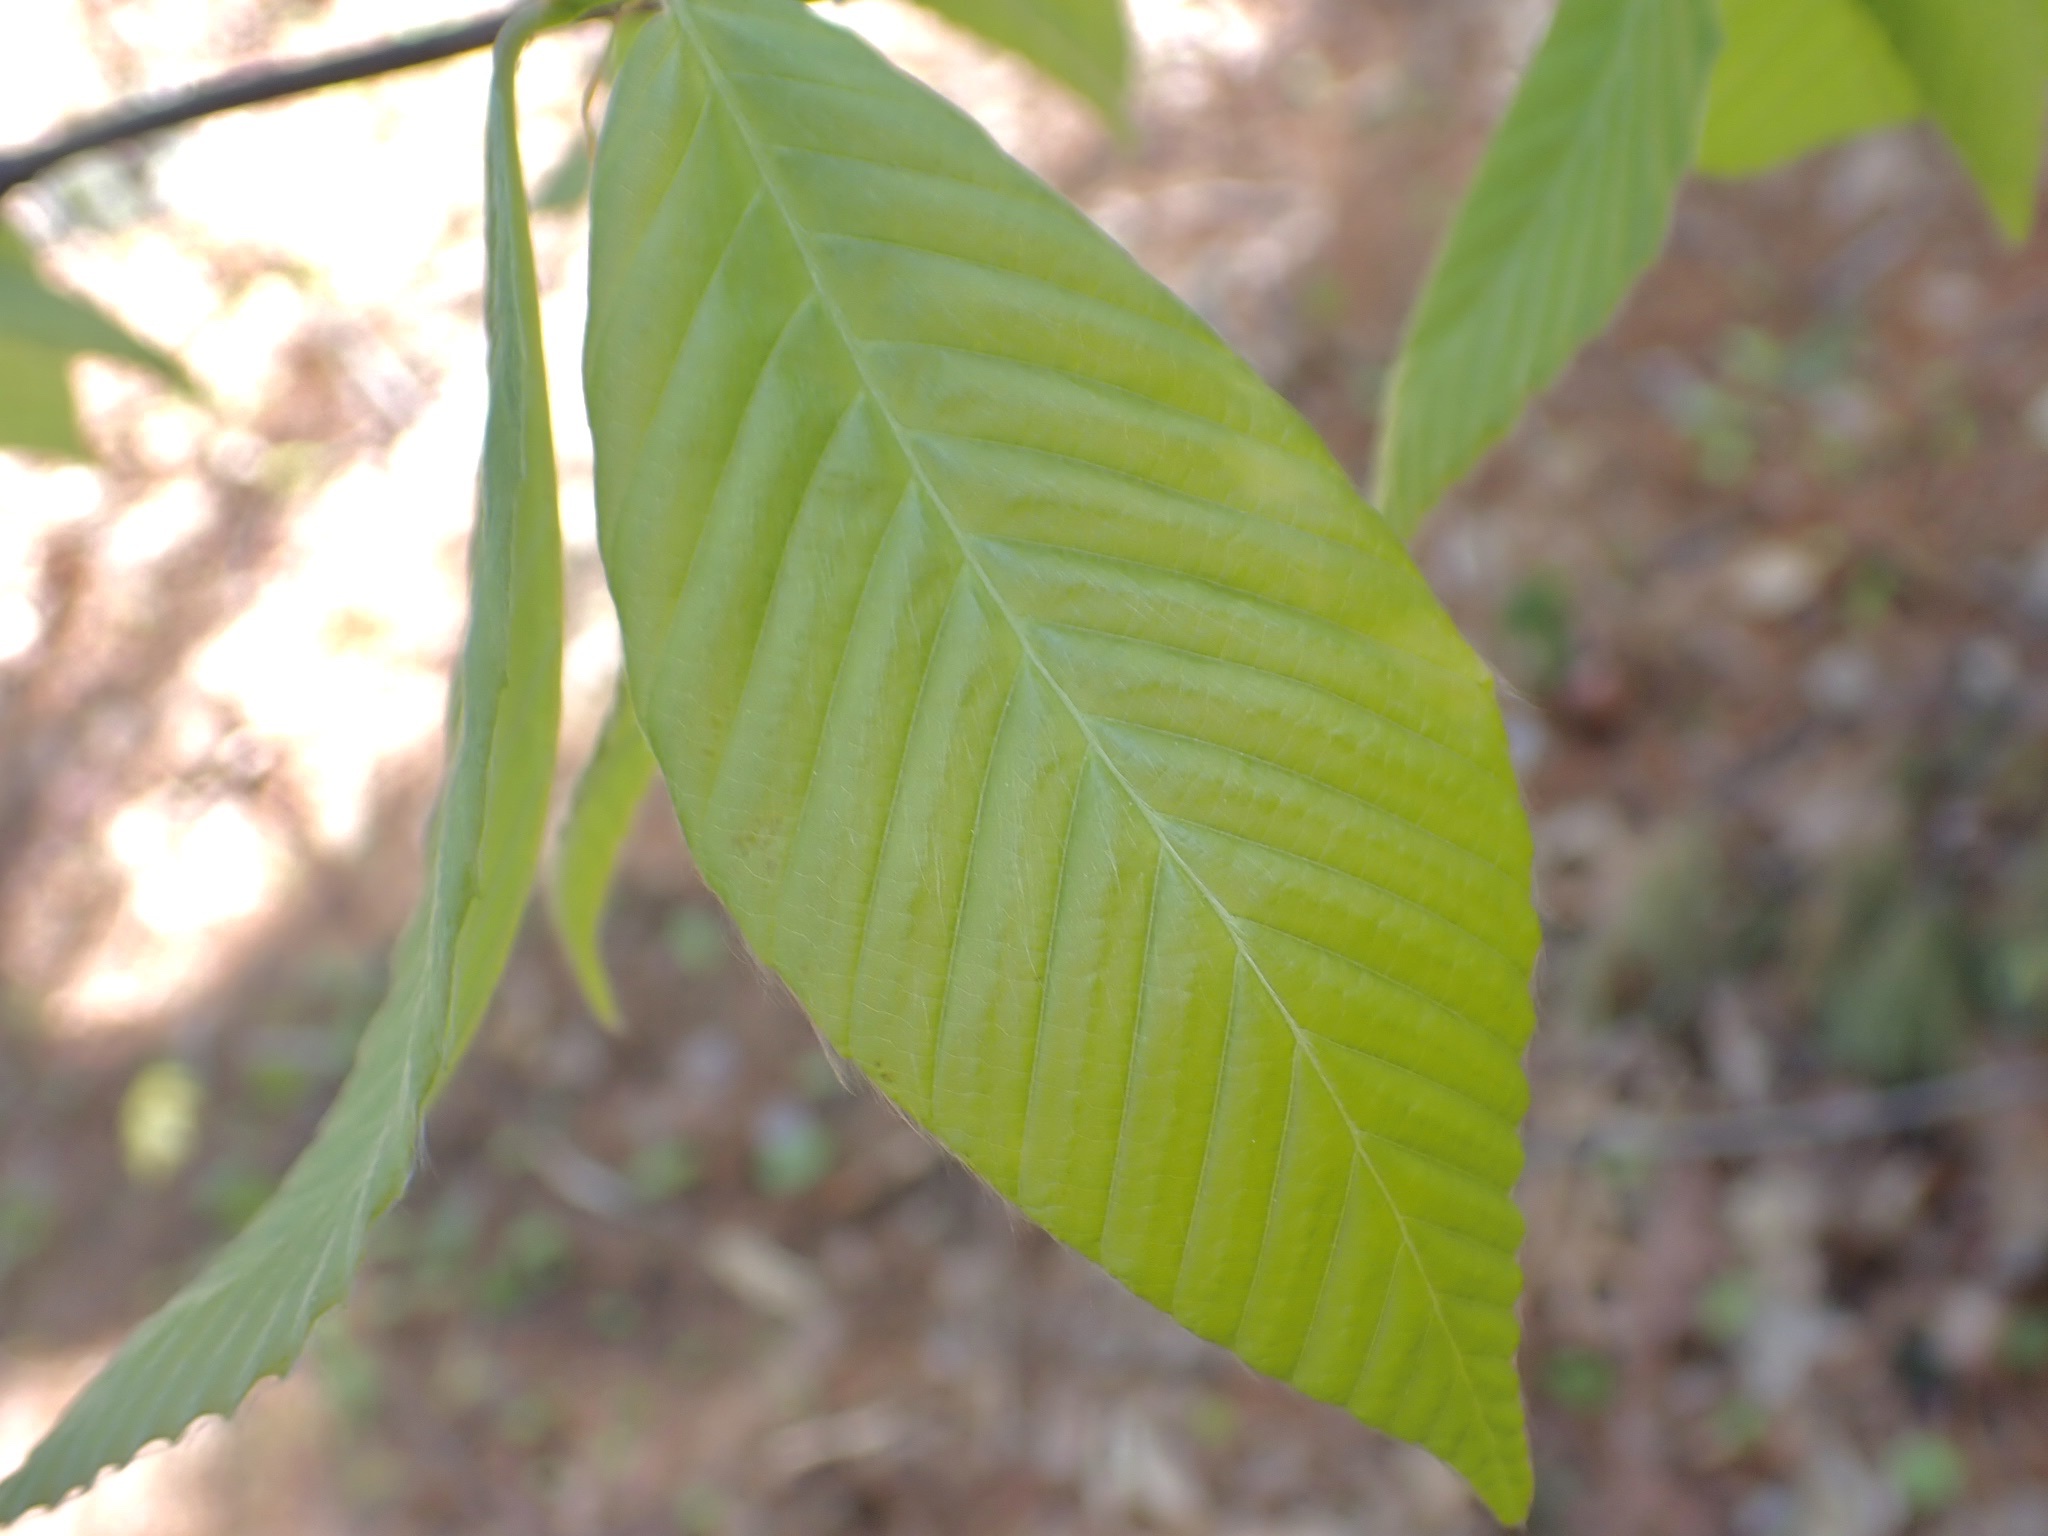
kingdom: Plantae
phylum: Tracheophyta
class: Magnoliopsida
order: Fagales
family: Fagaceae
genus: Fagus
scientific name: Fagus grandifolia
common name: American beech
